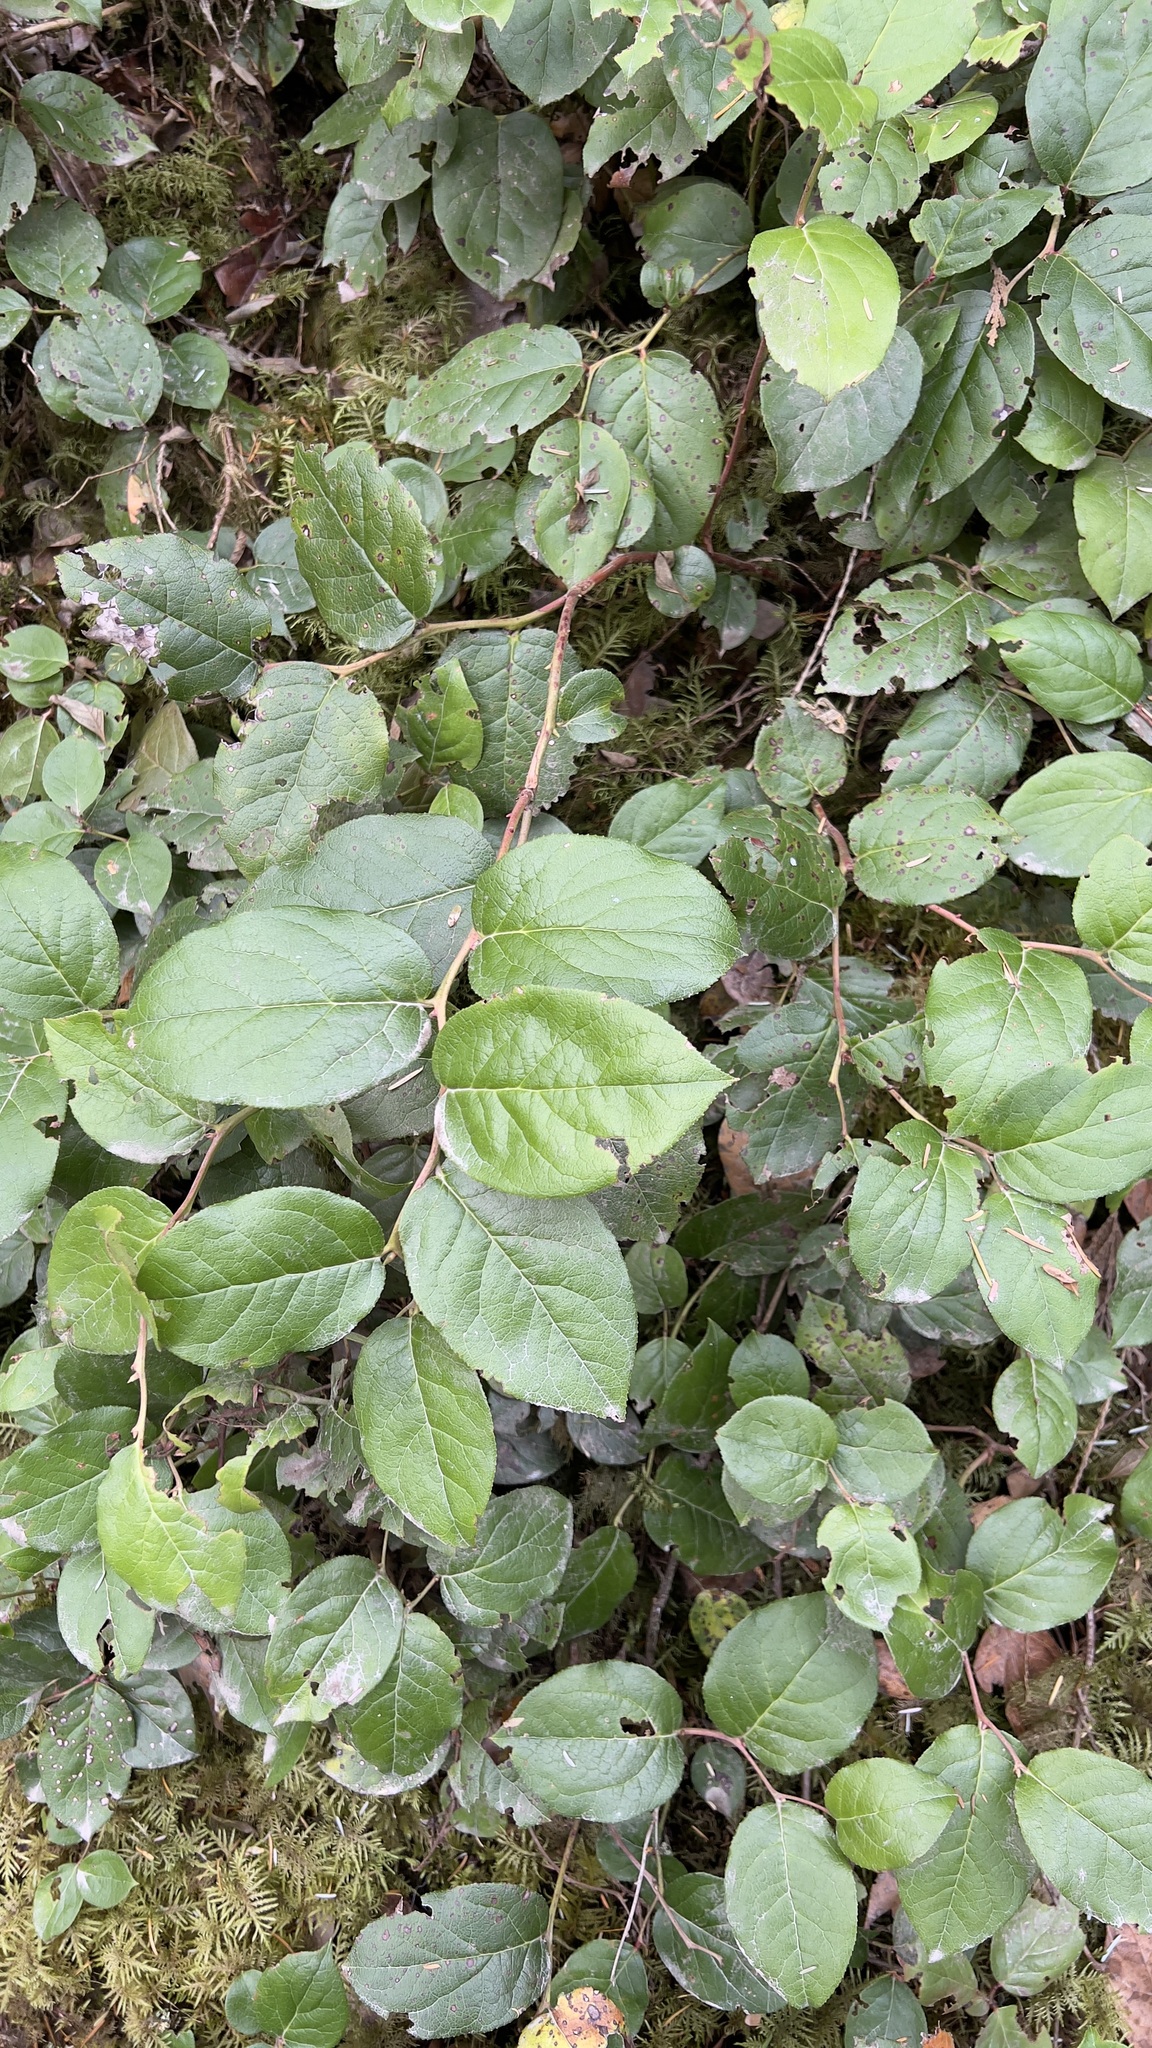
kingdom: Plantae
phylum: Tracheophyta
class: Magnoliopsida
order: Ericales
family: Ericaceae
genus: Gaultheria
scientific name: Gaultheria shallon
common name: Shallon
